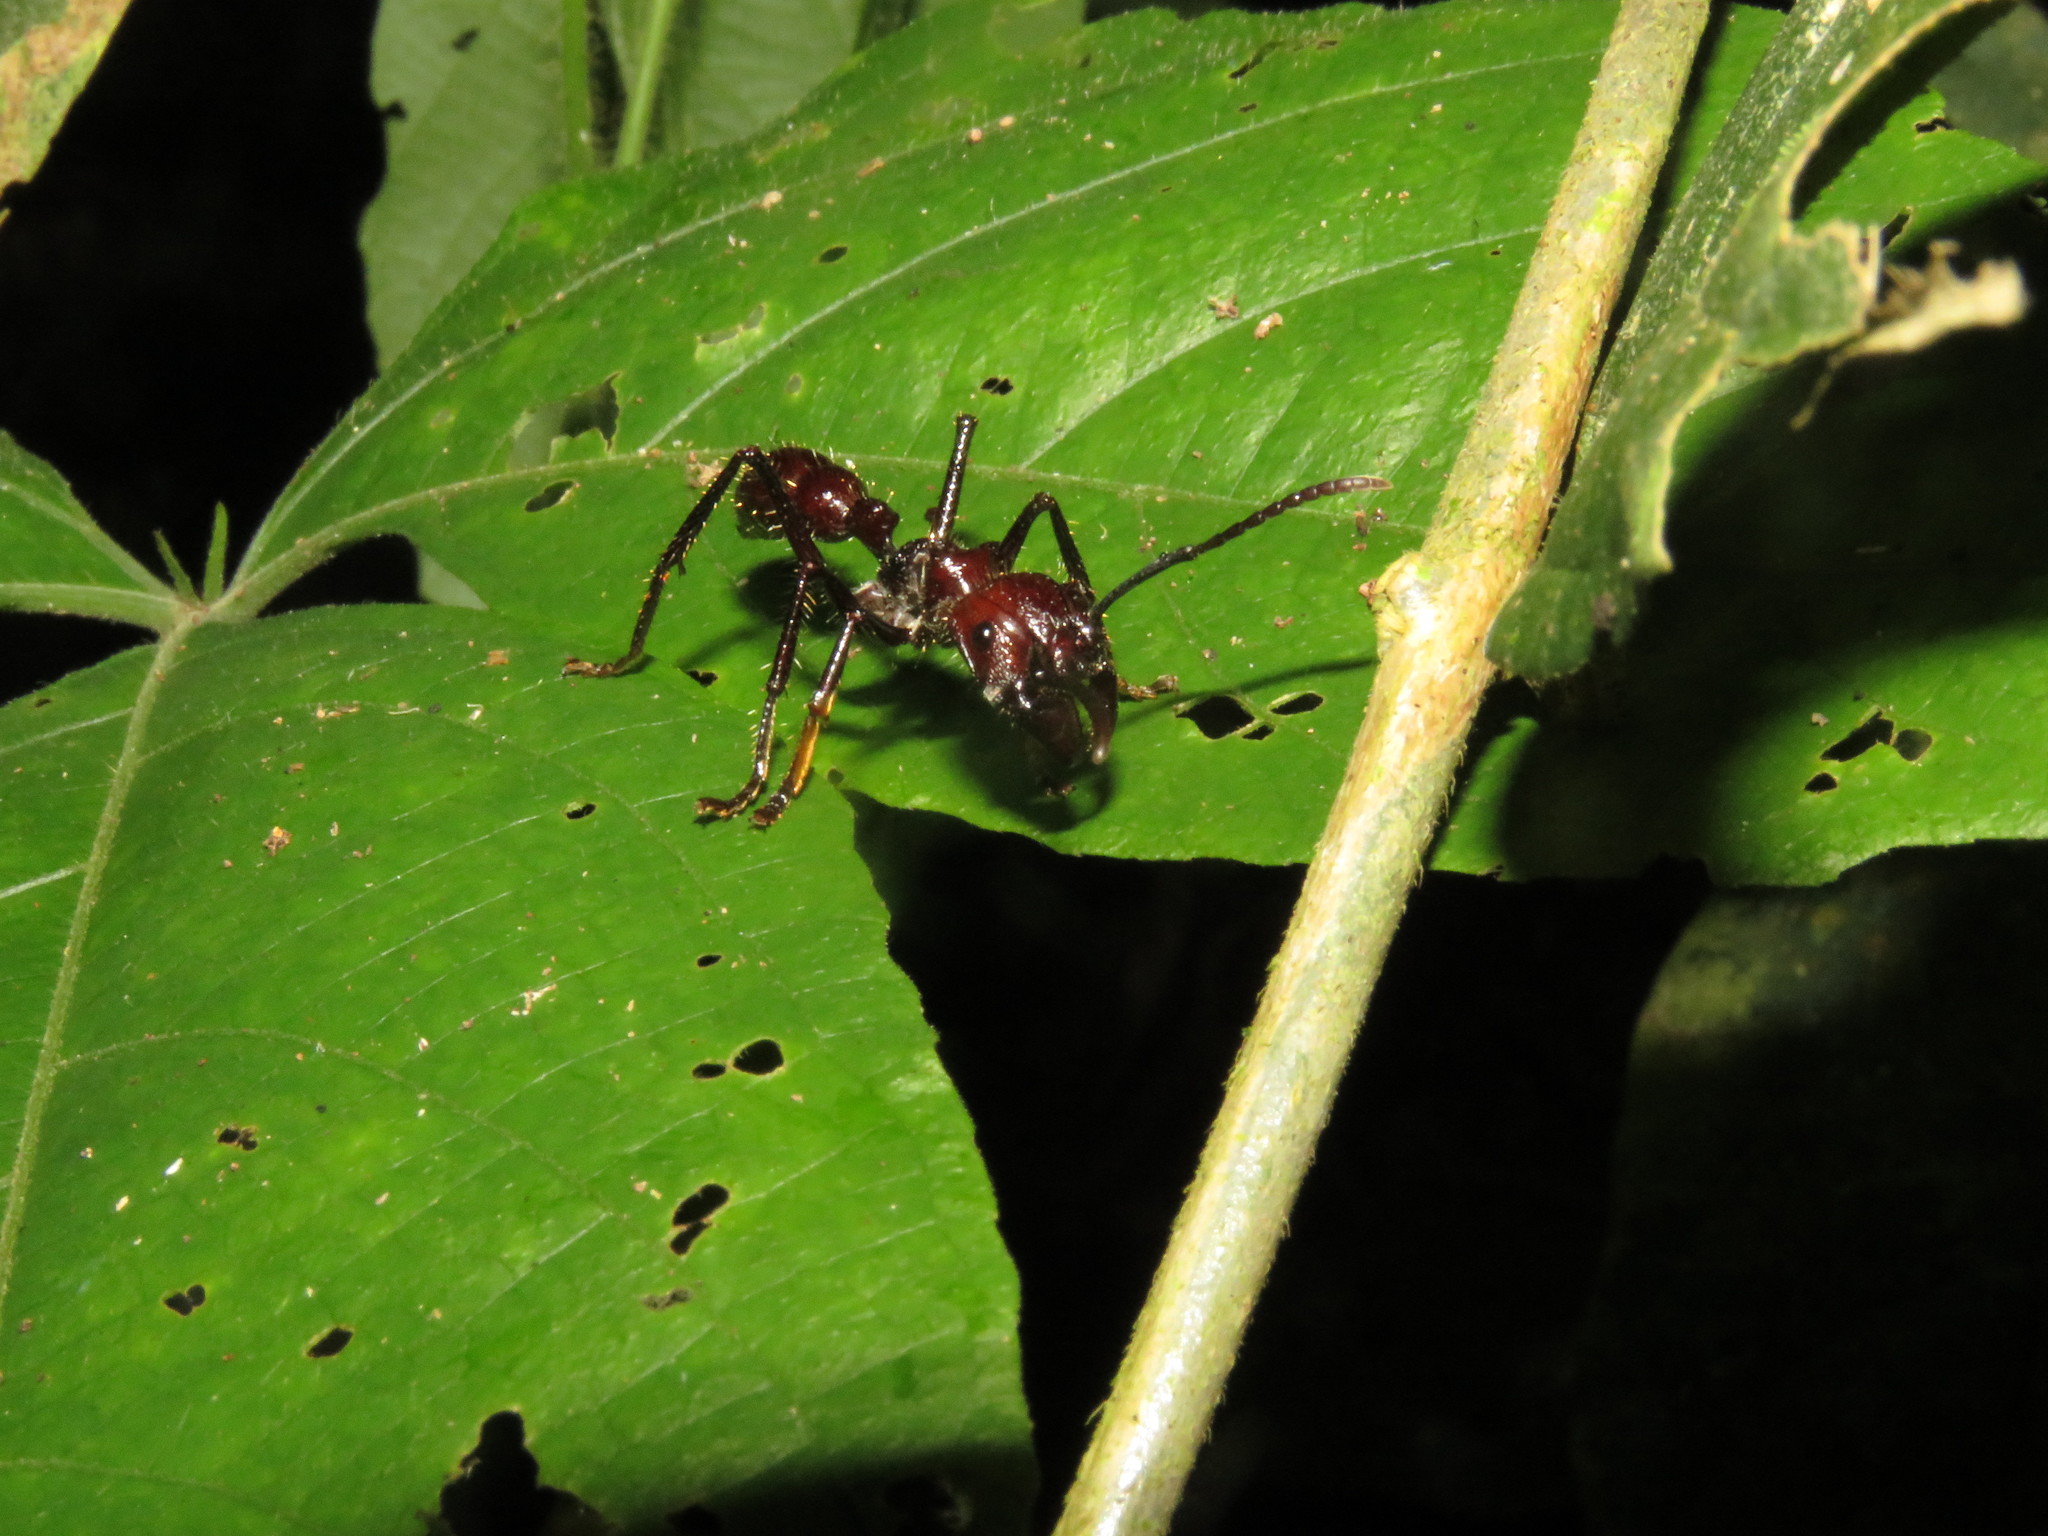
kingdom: Animalia
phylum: Arthropoda
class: Insecta
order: Hymenoptera
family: Formicidae
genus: Paraponera
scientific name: Paraponera clavata
